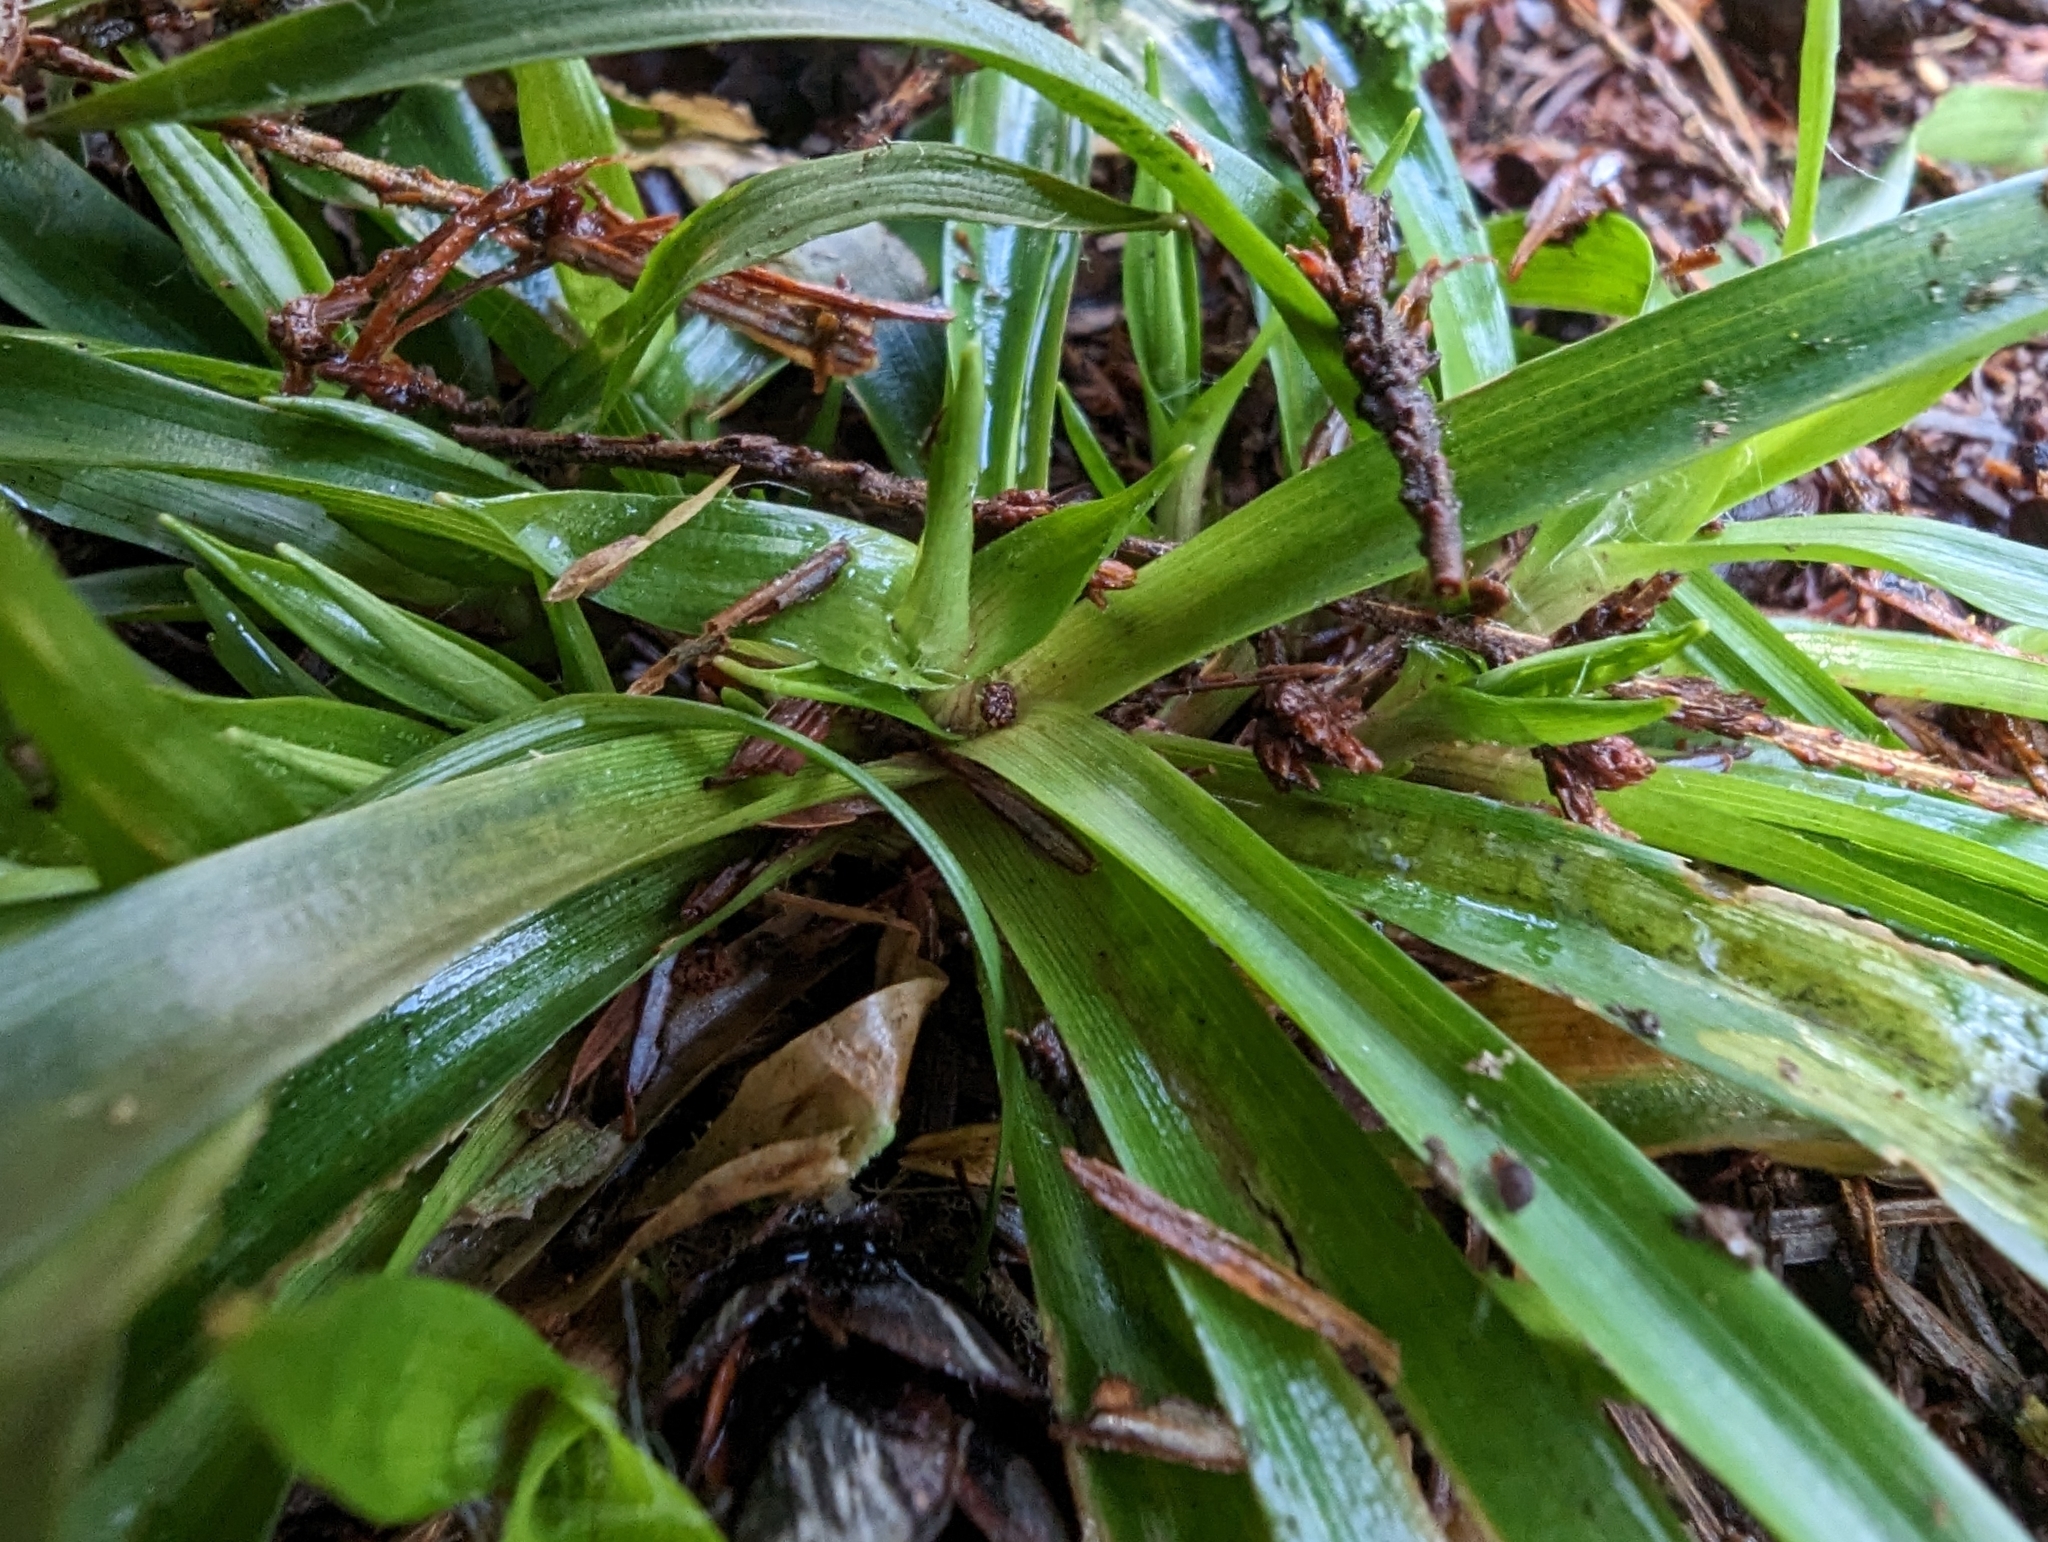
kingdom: Plantae
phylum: Tracheophyta
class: Liliopsida
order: Poales
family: Juncaceae
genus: Luzula
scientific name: Luzula parviflora
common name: Millet woodrush
